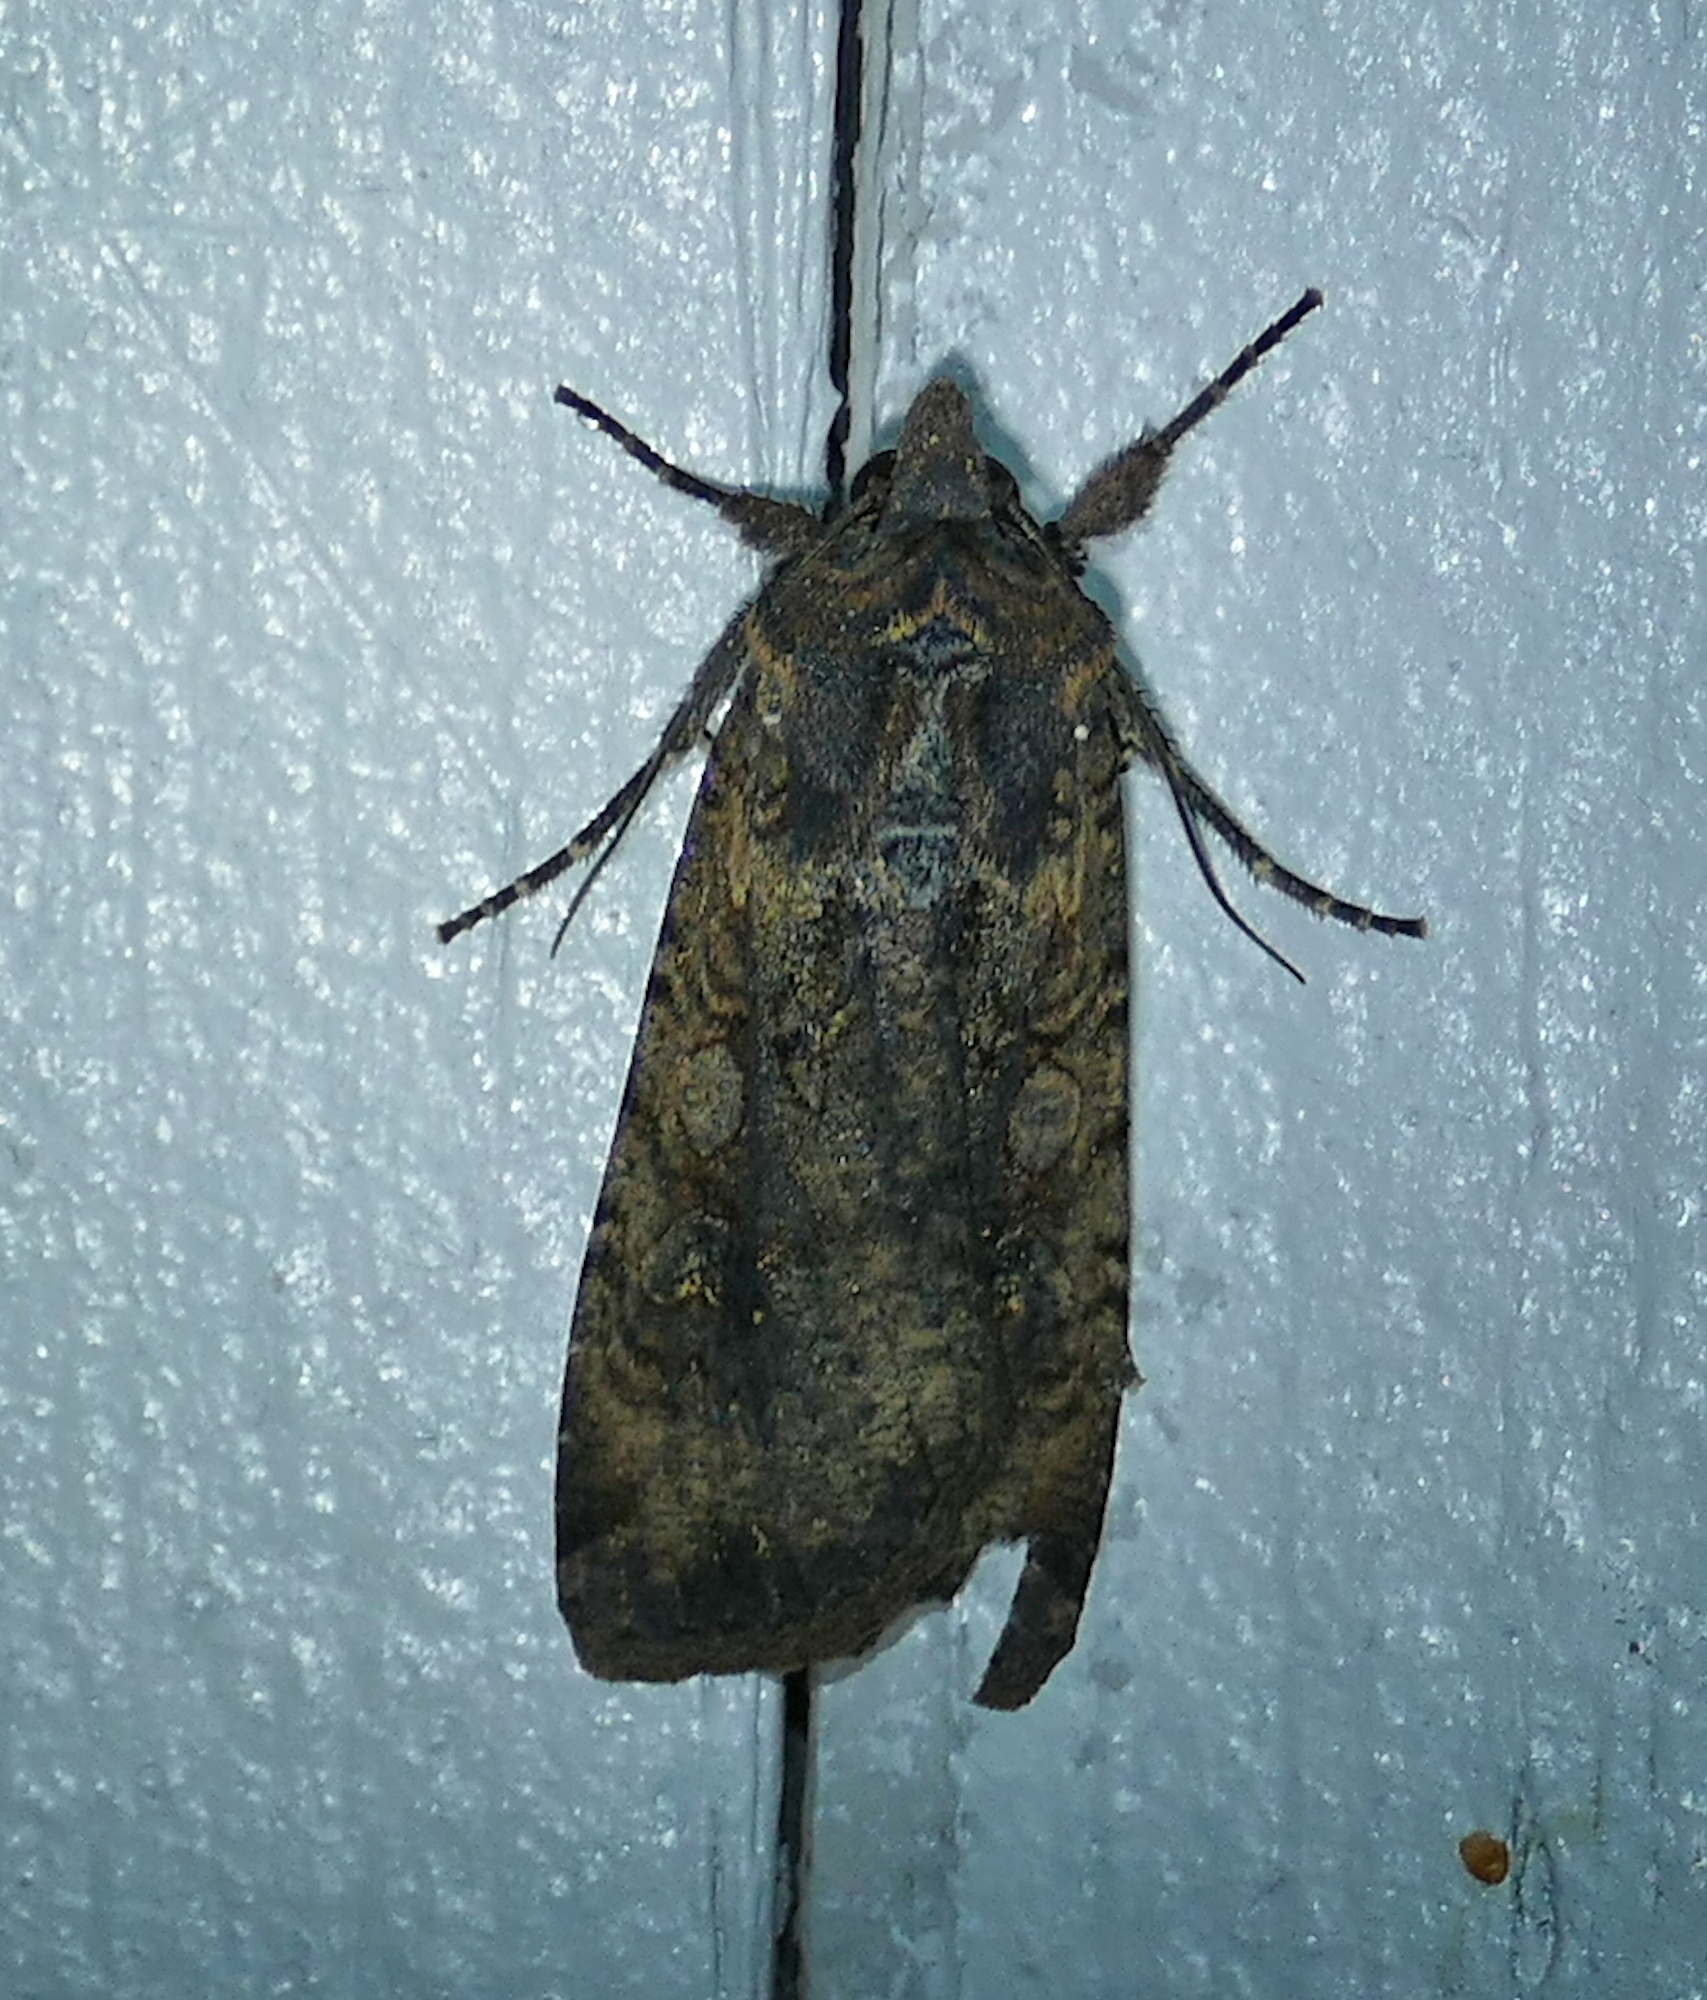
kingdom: Animalia
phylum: Arthropoda
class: Insecta
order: Lepidoptera
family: Noctuidae
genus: Peridroma
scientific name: Peridroma saucia
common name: Pearly underwing
